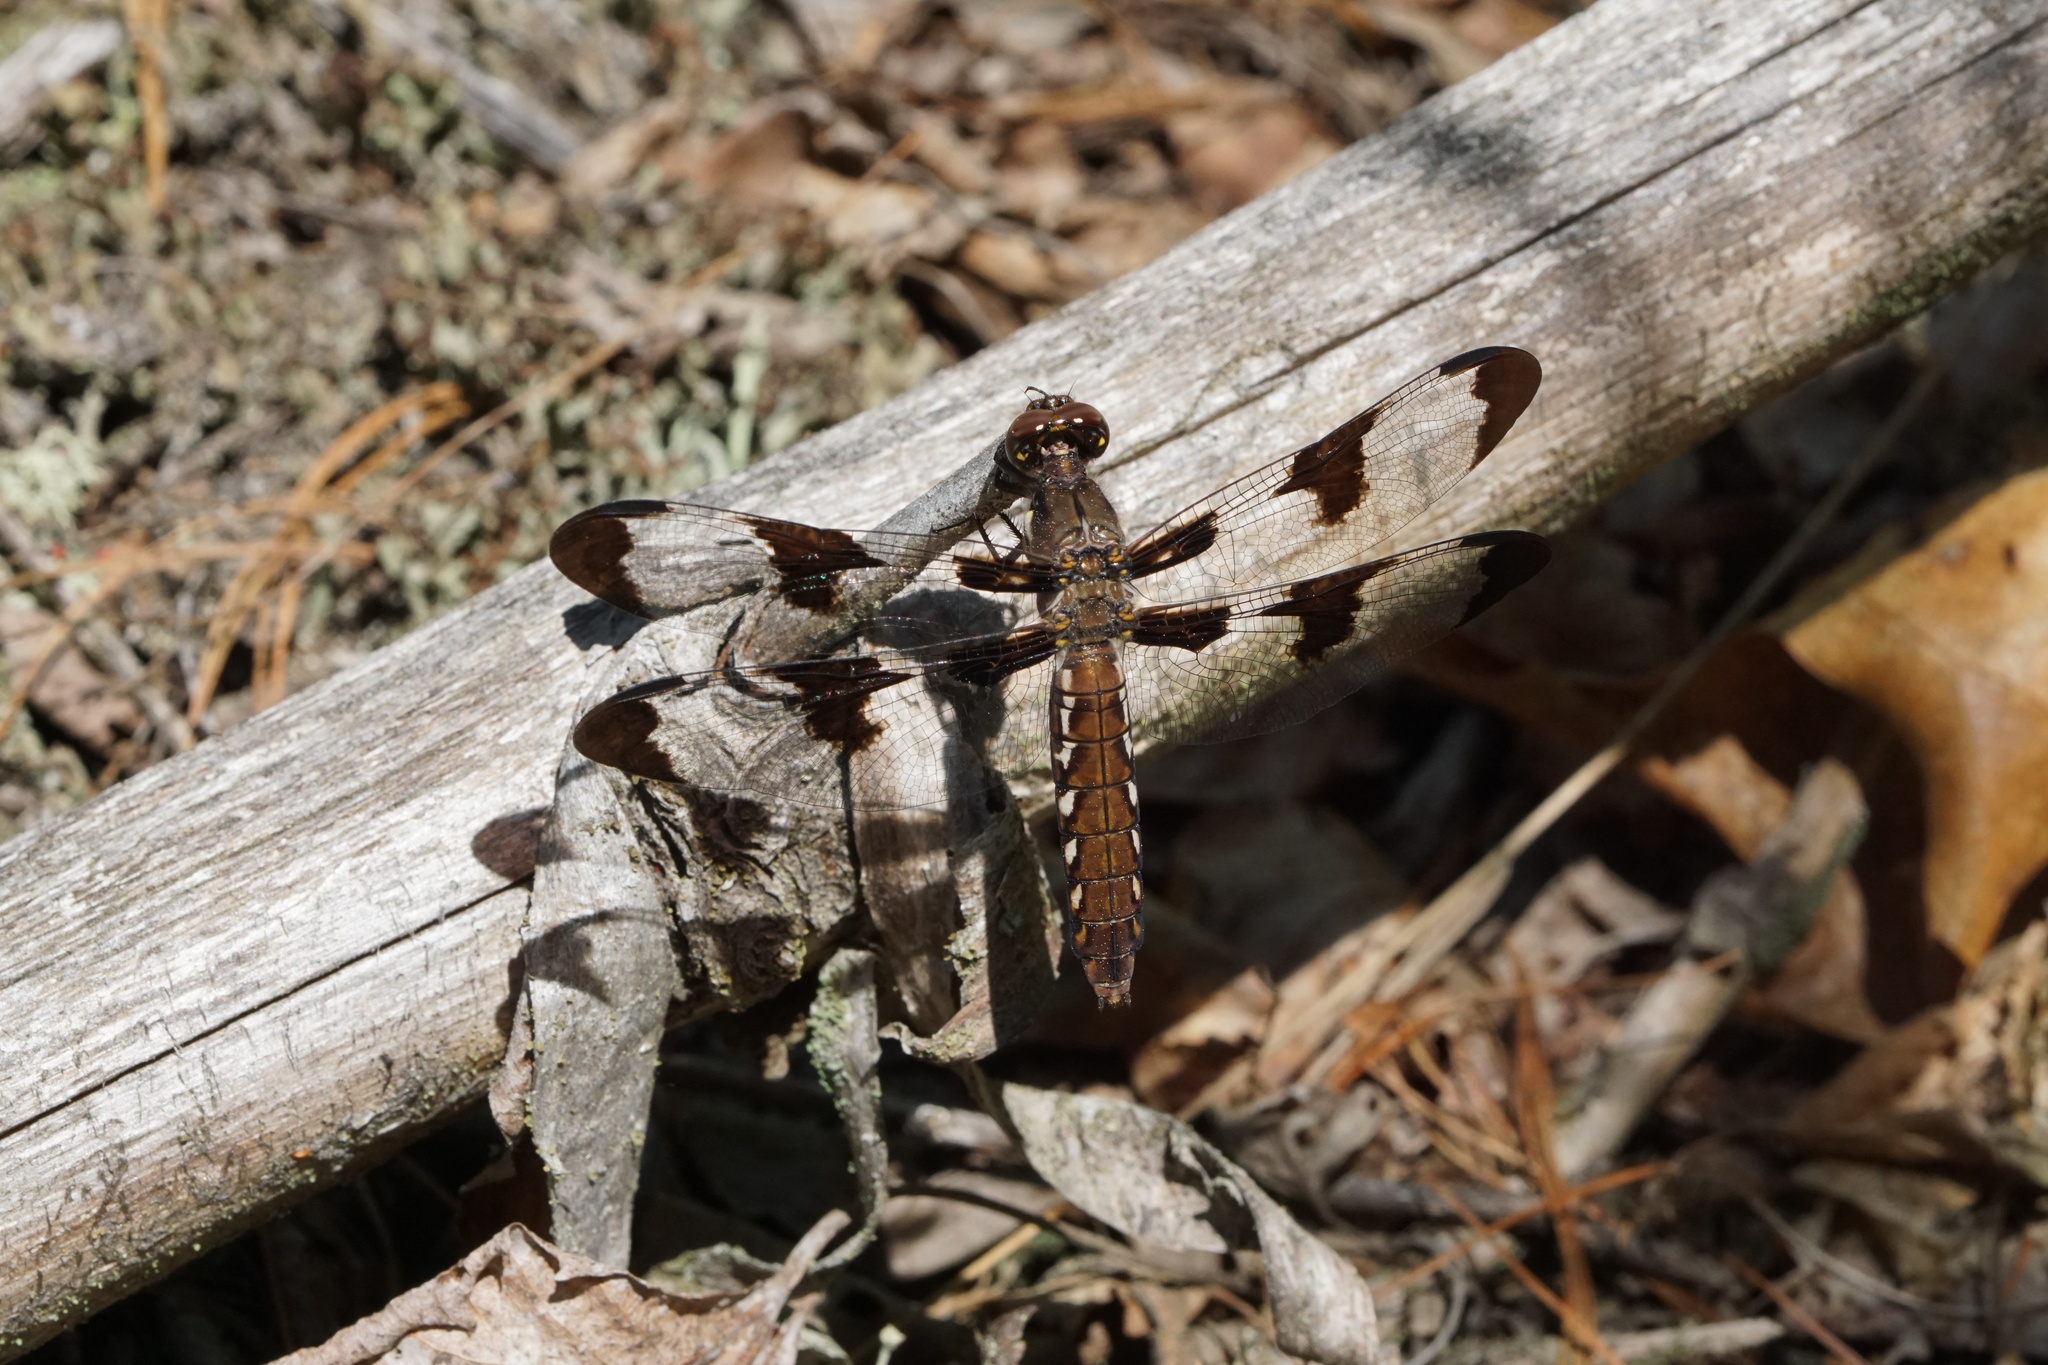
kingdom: Animalia
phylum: Arthropoda
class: Insecta
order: Odonata
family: Libellulidae
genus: Plathemis
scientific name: Plathemis lydia
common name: Common whitetail
